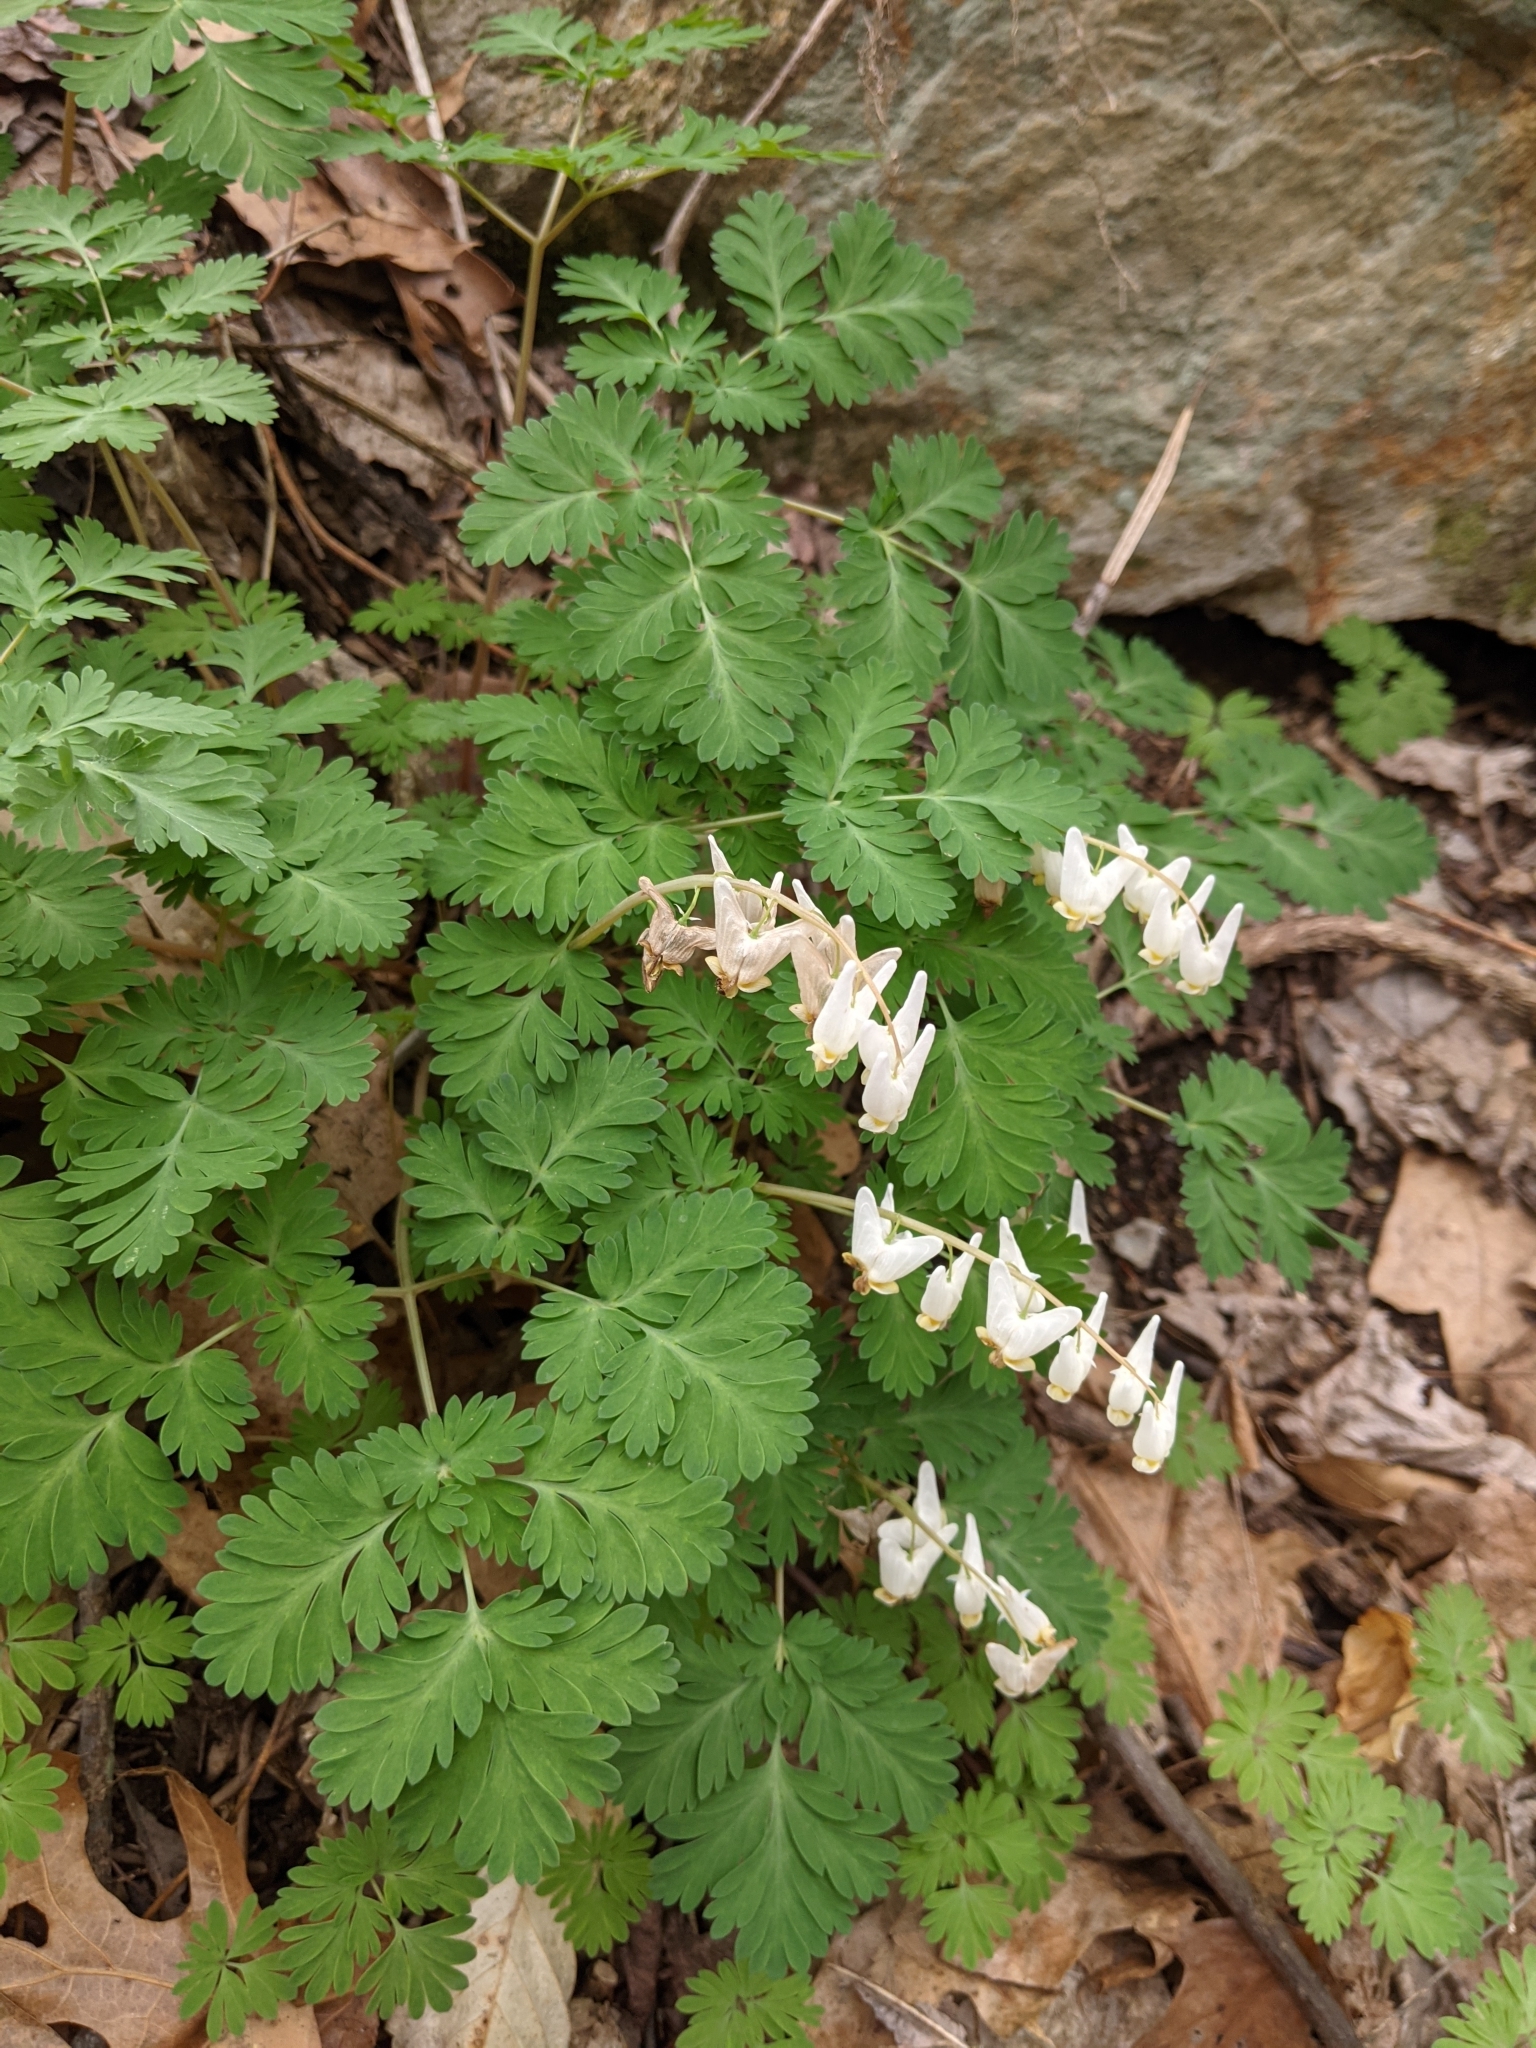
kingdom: Plantae
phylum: Tracheophyta
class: Magnoliopsida
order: Ranunculales
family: Papaveraceae
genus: Dicentra
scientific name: Dicentra cucullaria
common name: Dutchman's breeches
